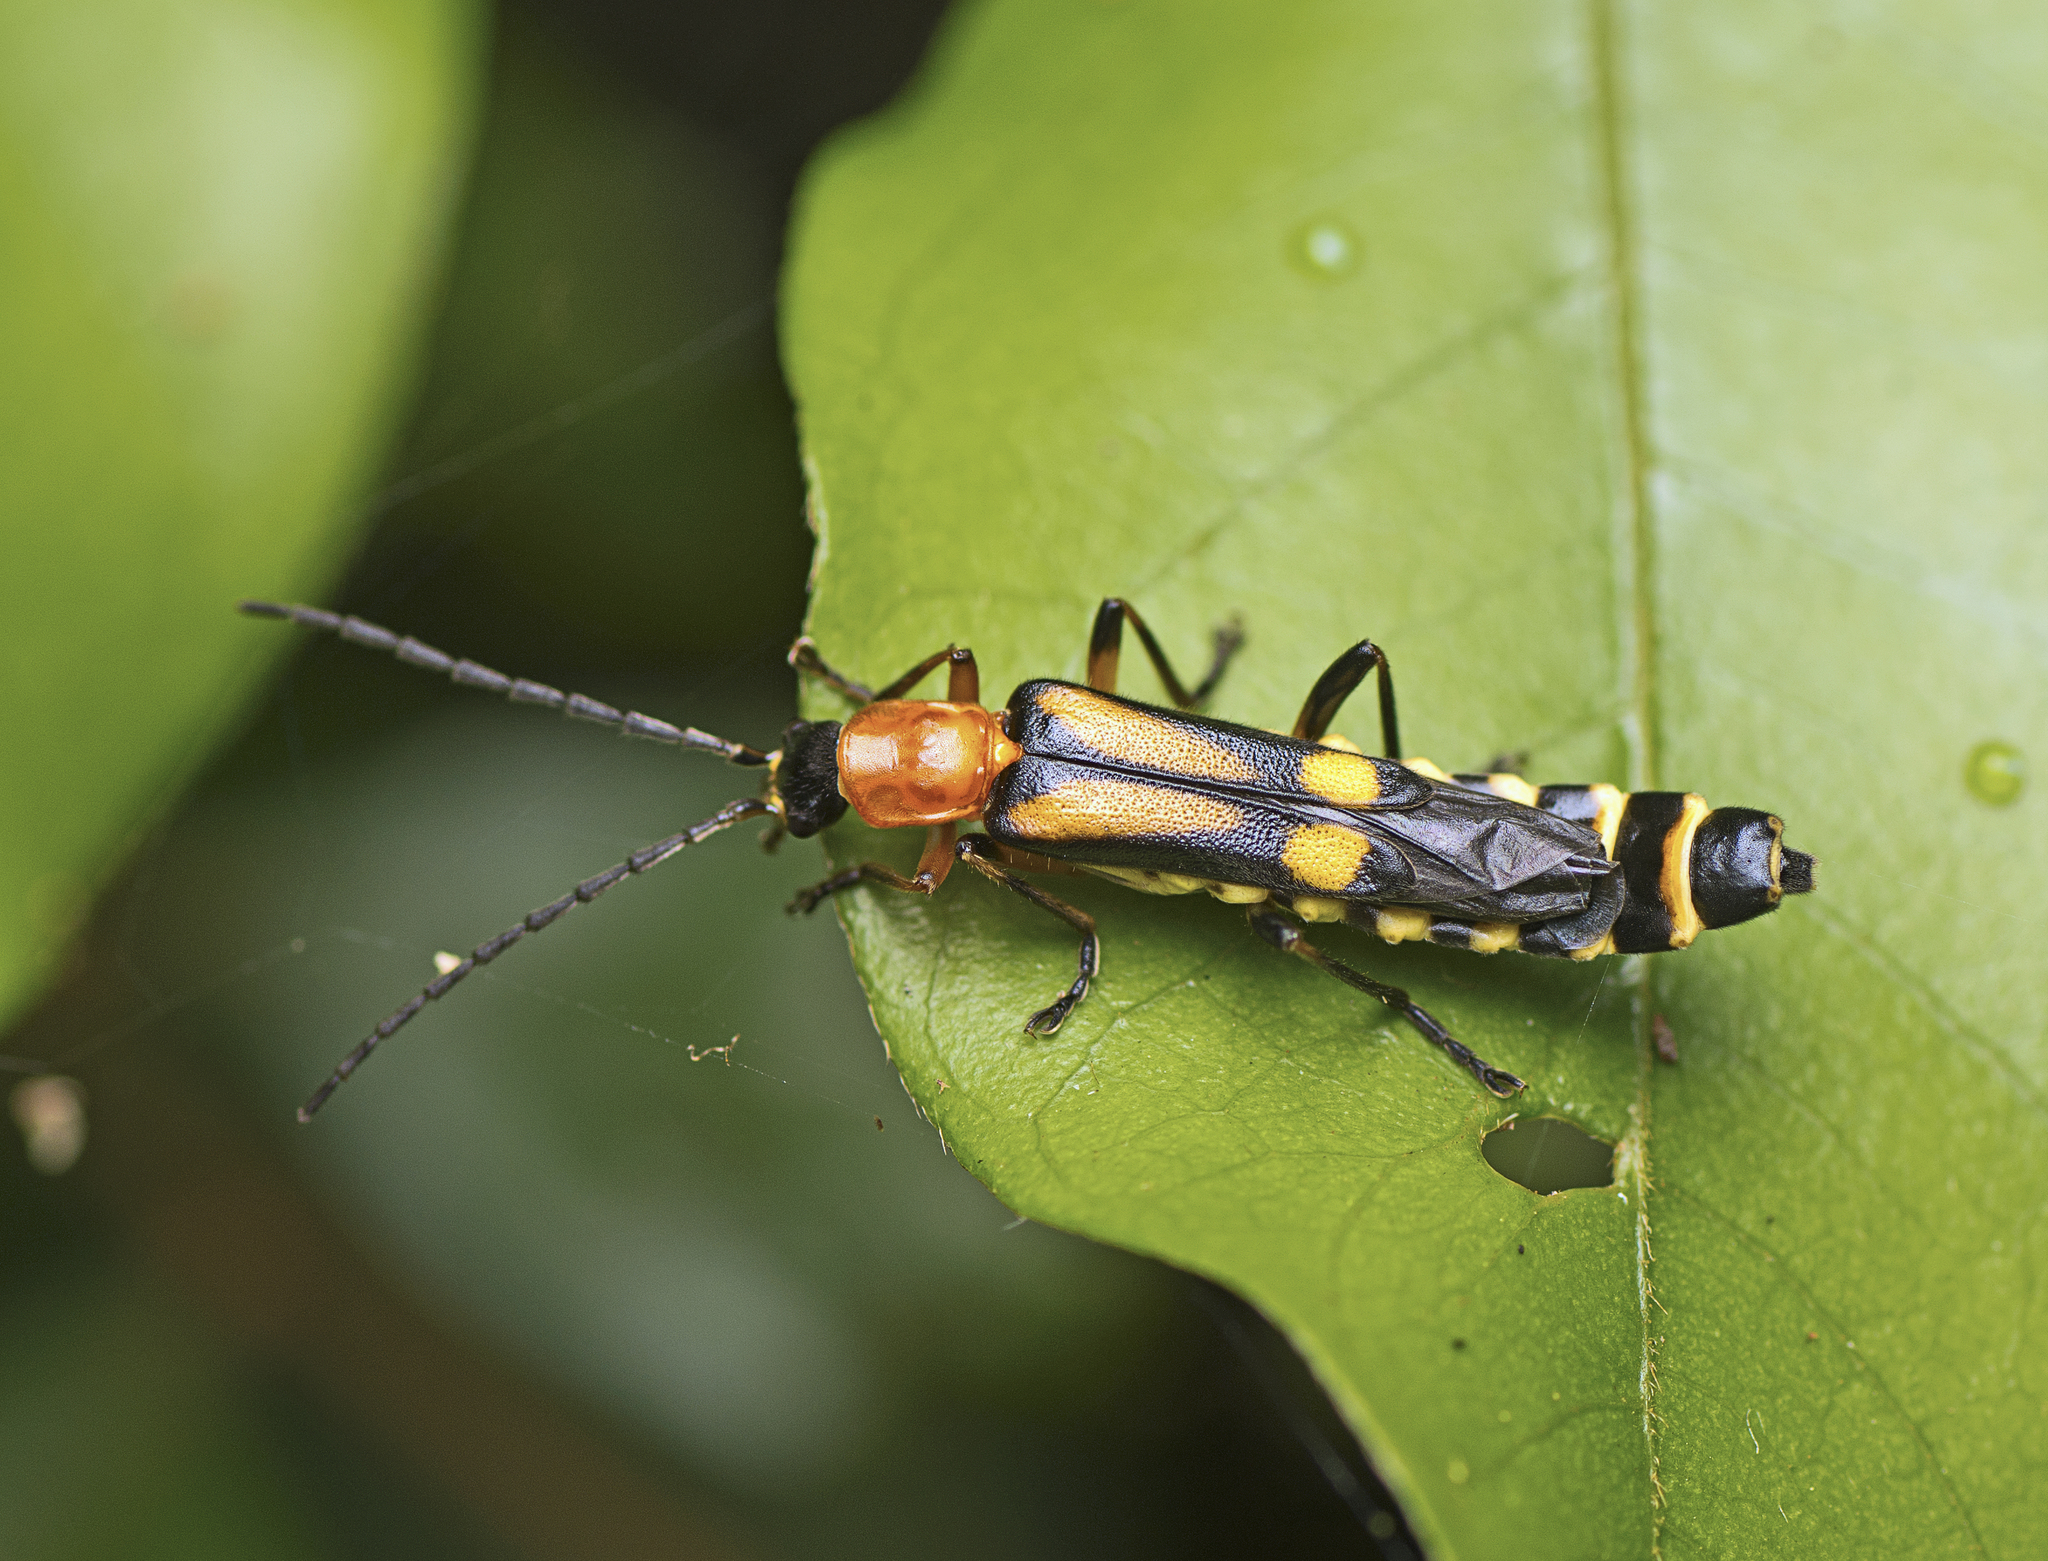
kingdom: Animalia
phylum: Arthropoda
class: Insecta
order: Coleoptera
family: Cantharidae
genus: Chauliognathus
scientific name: Chauliognathus
